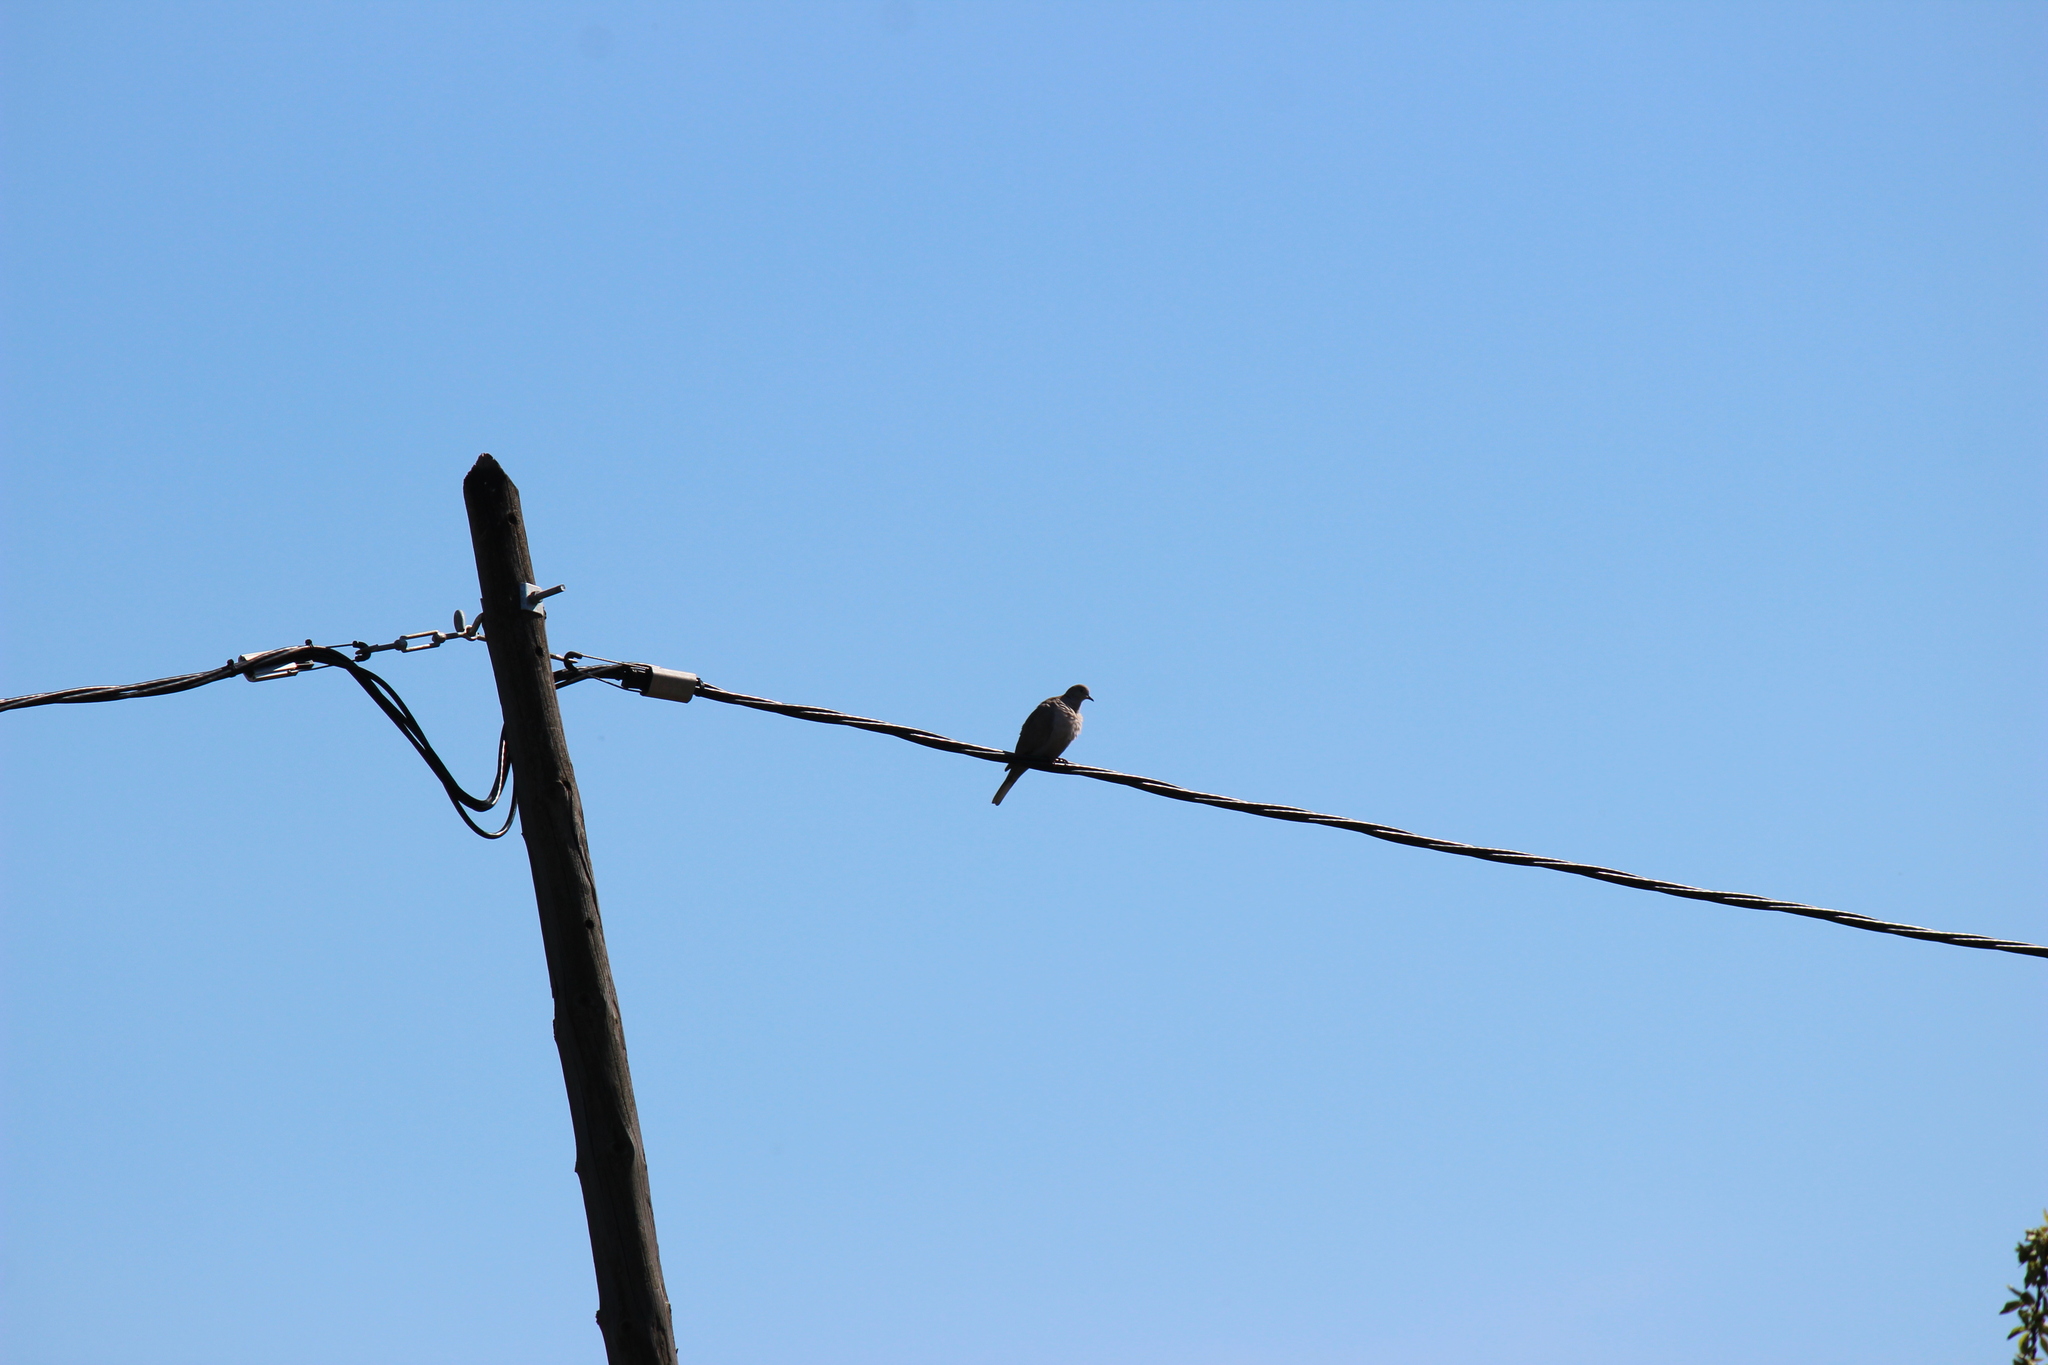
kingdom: Animalia
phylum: Chordata
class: Aves
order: Columbiformes
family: Columbidae
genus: Streptopelia
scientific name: Streptopelia decaocto
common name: Eurasian collared dove
